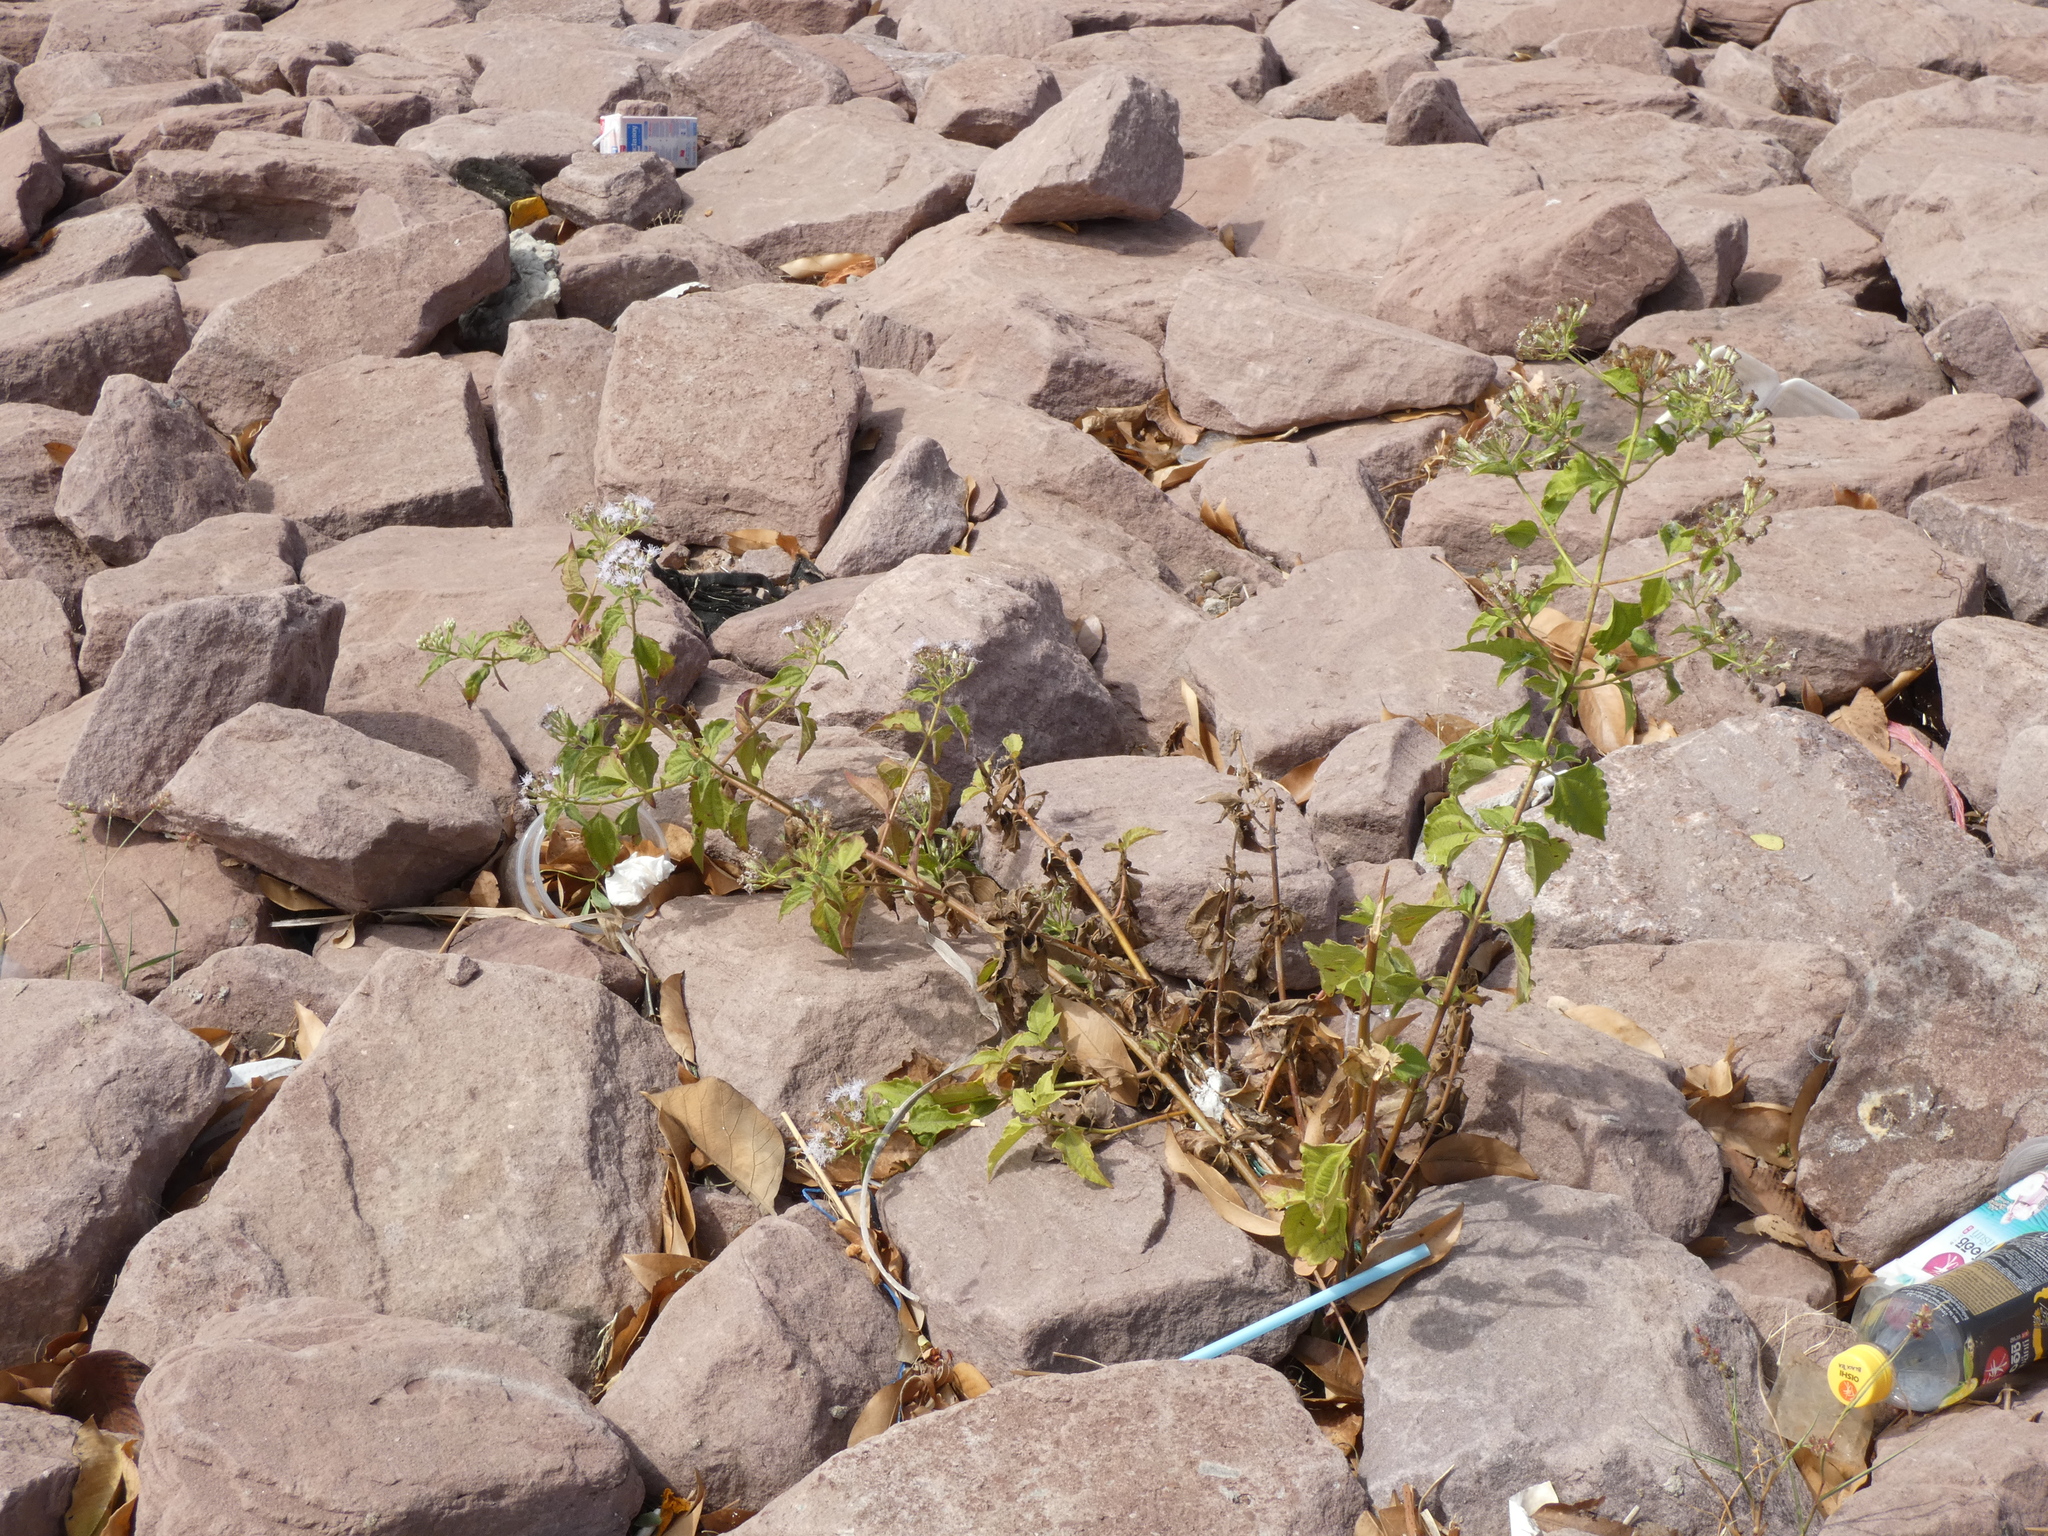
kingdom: Plantae
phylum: Tracheophyta
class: Magnoliopsida
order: Asterales
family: Asteraceae
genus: Chromolaena
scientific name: Chromolaena odorata
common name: Siamweed
